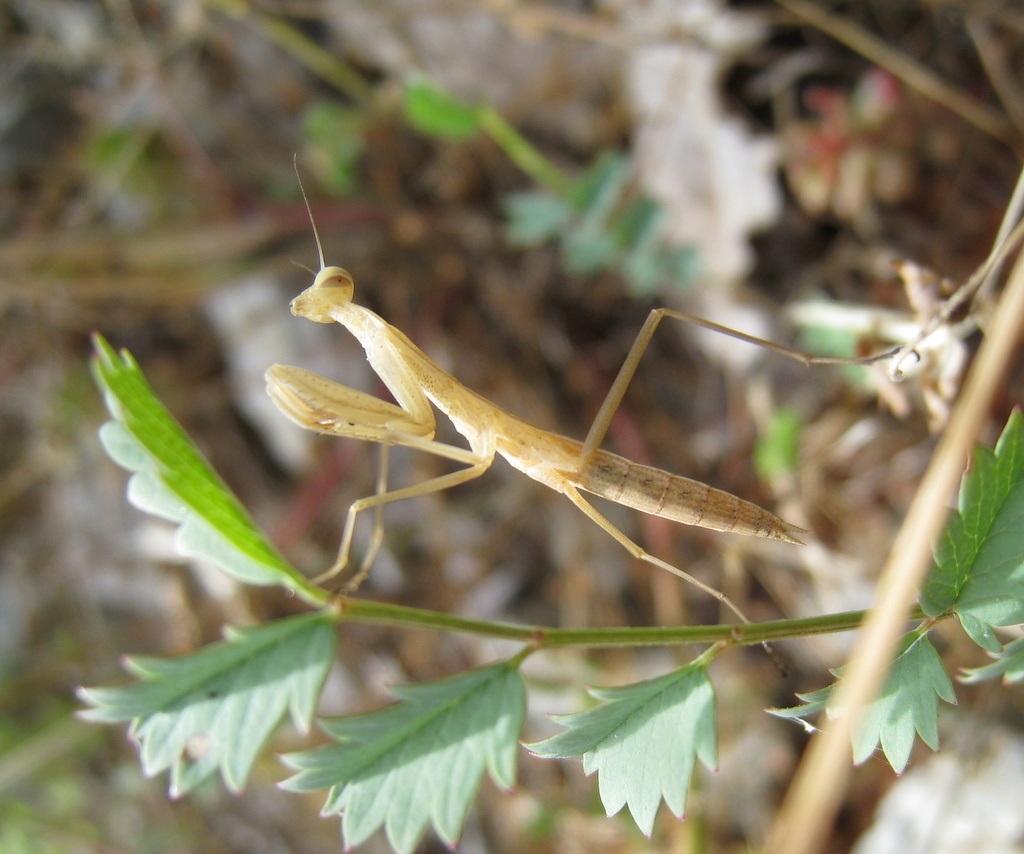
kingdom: Animalia
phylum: Arthropoda
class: Insecta
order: Mantodea
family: Mantidae
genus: Mantis
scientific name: Mantis religiosa
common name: Praying mantis
